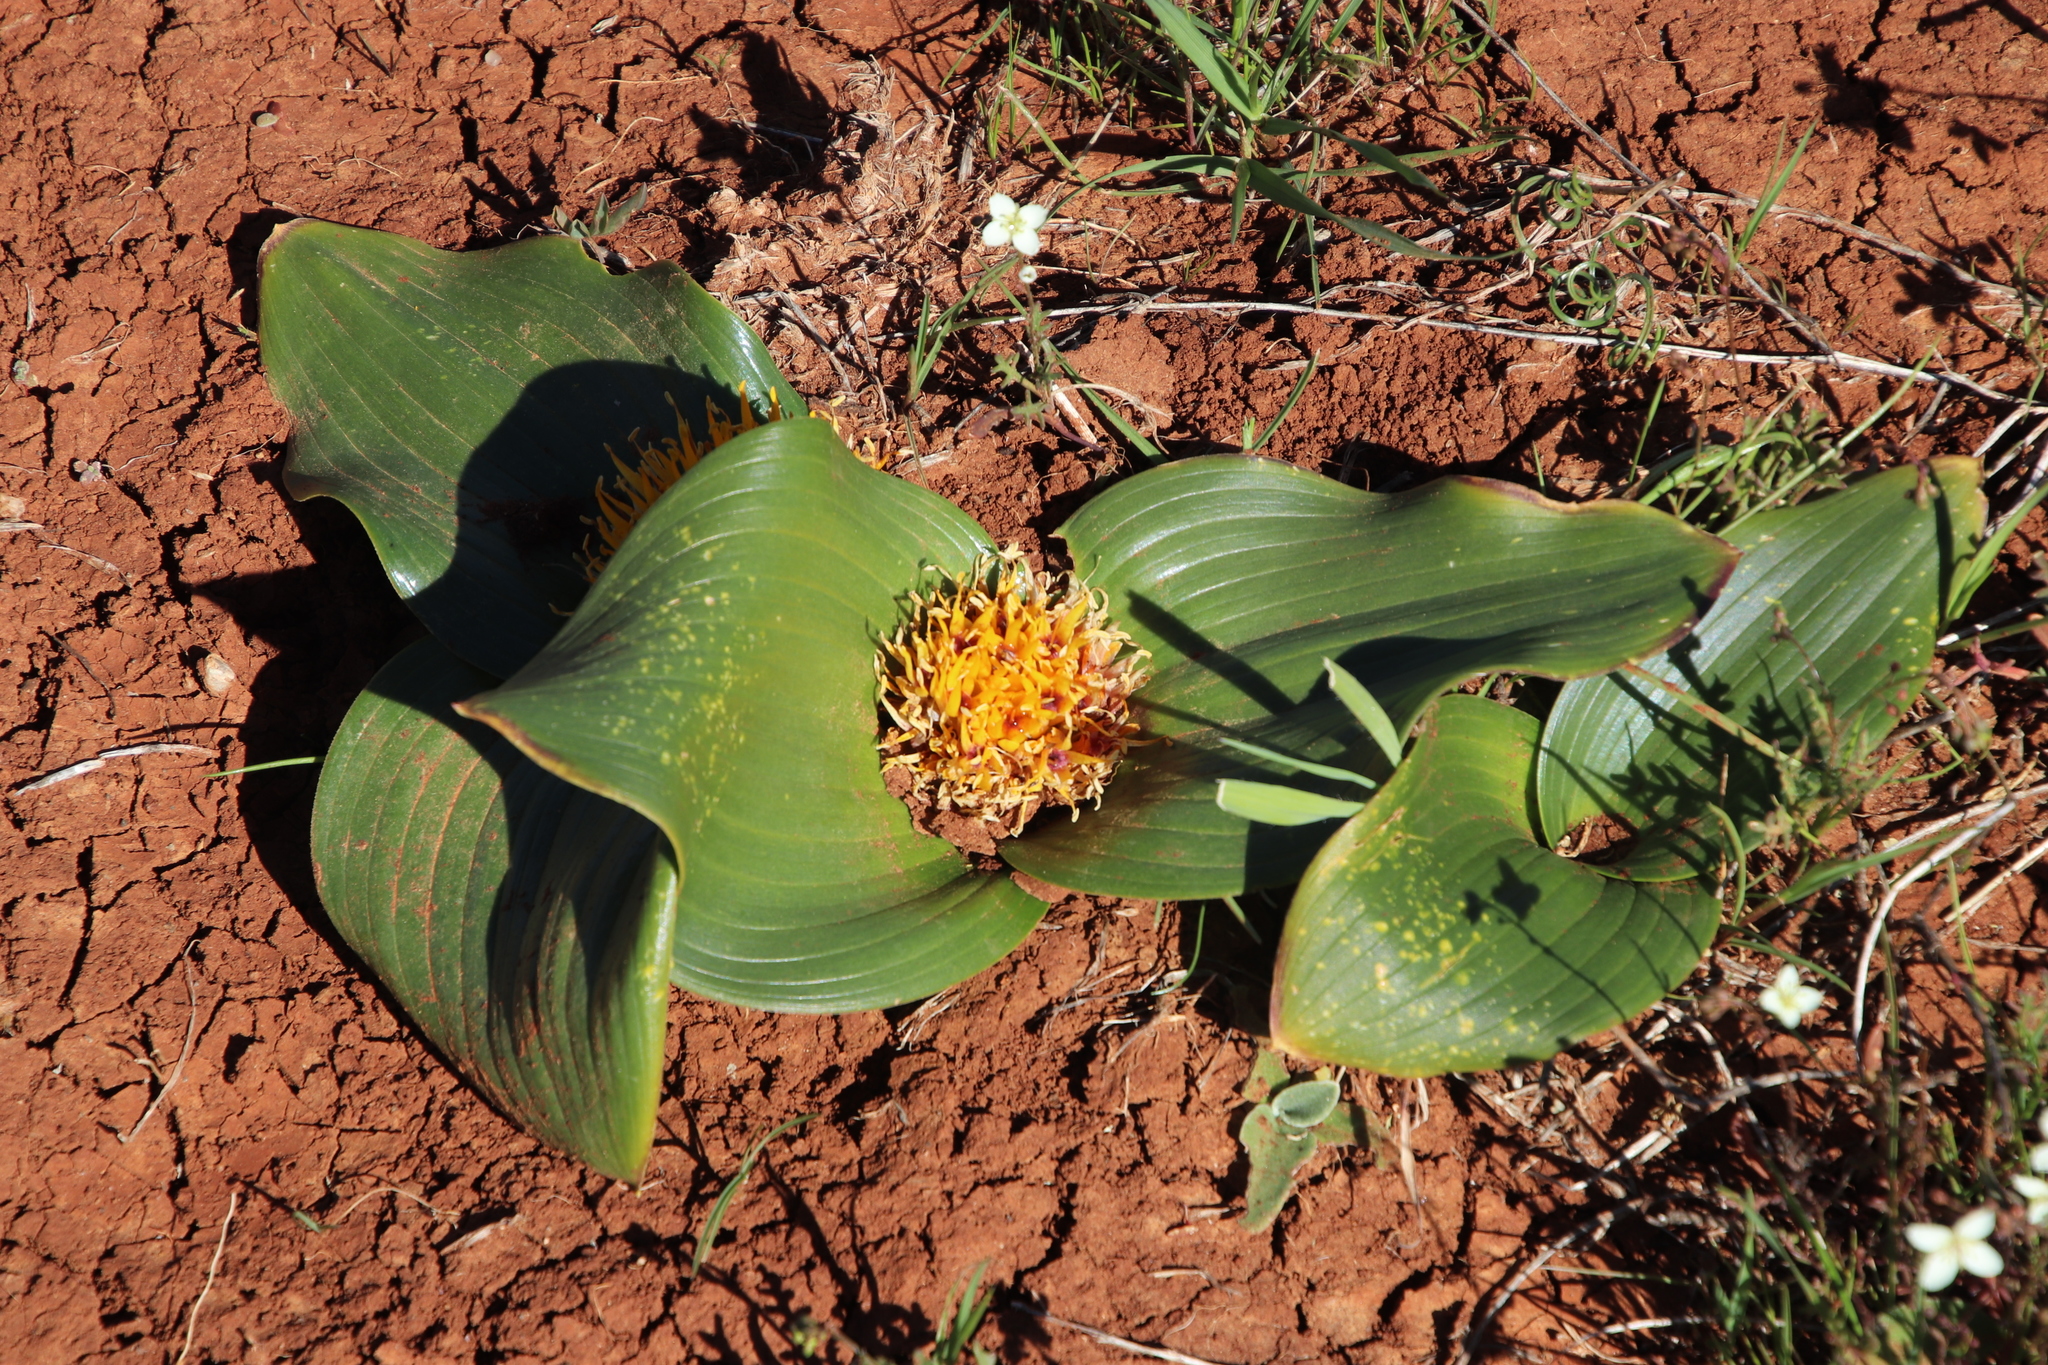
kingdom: Plantae
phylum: Tracheophyta
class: Liliopsida
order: Asparagales
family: Asparagaceae
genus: Daubenya
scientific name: Daubenya capensis
